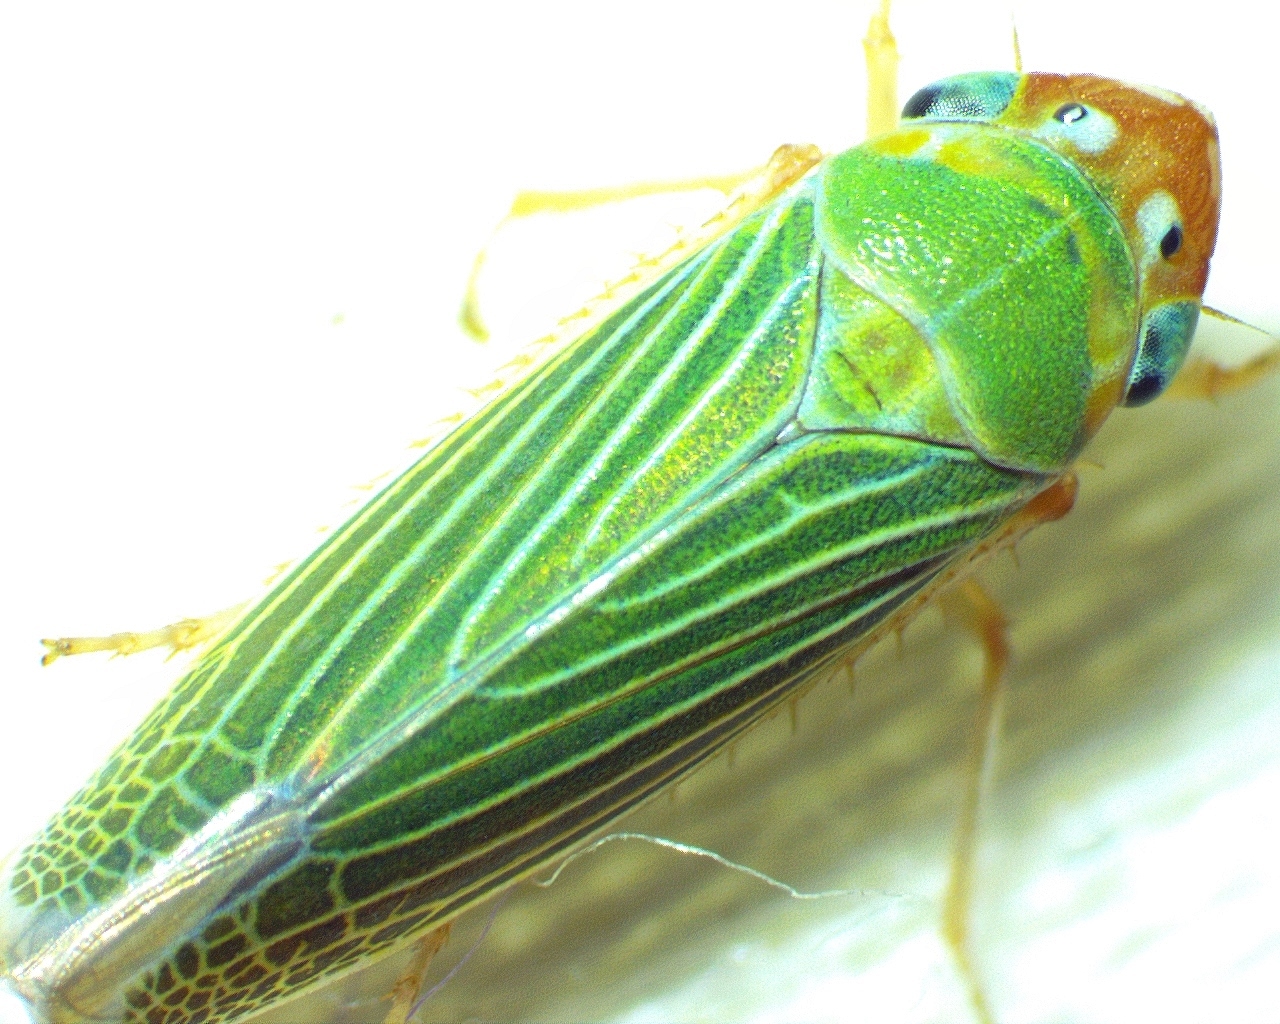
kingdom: Animalia
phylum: Arthropoda
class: Insecta
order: Hemiptera
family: Cicadellidae
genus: Xyphon
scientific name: Xyphon flaviceps
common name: Yellowheaded leafhopper
